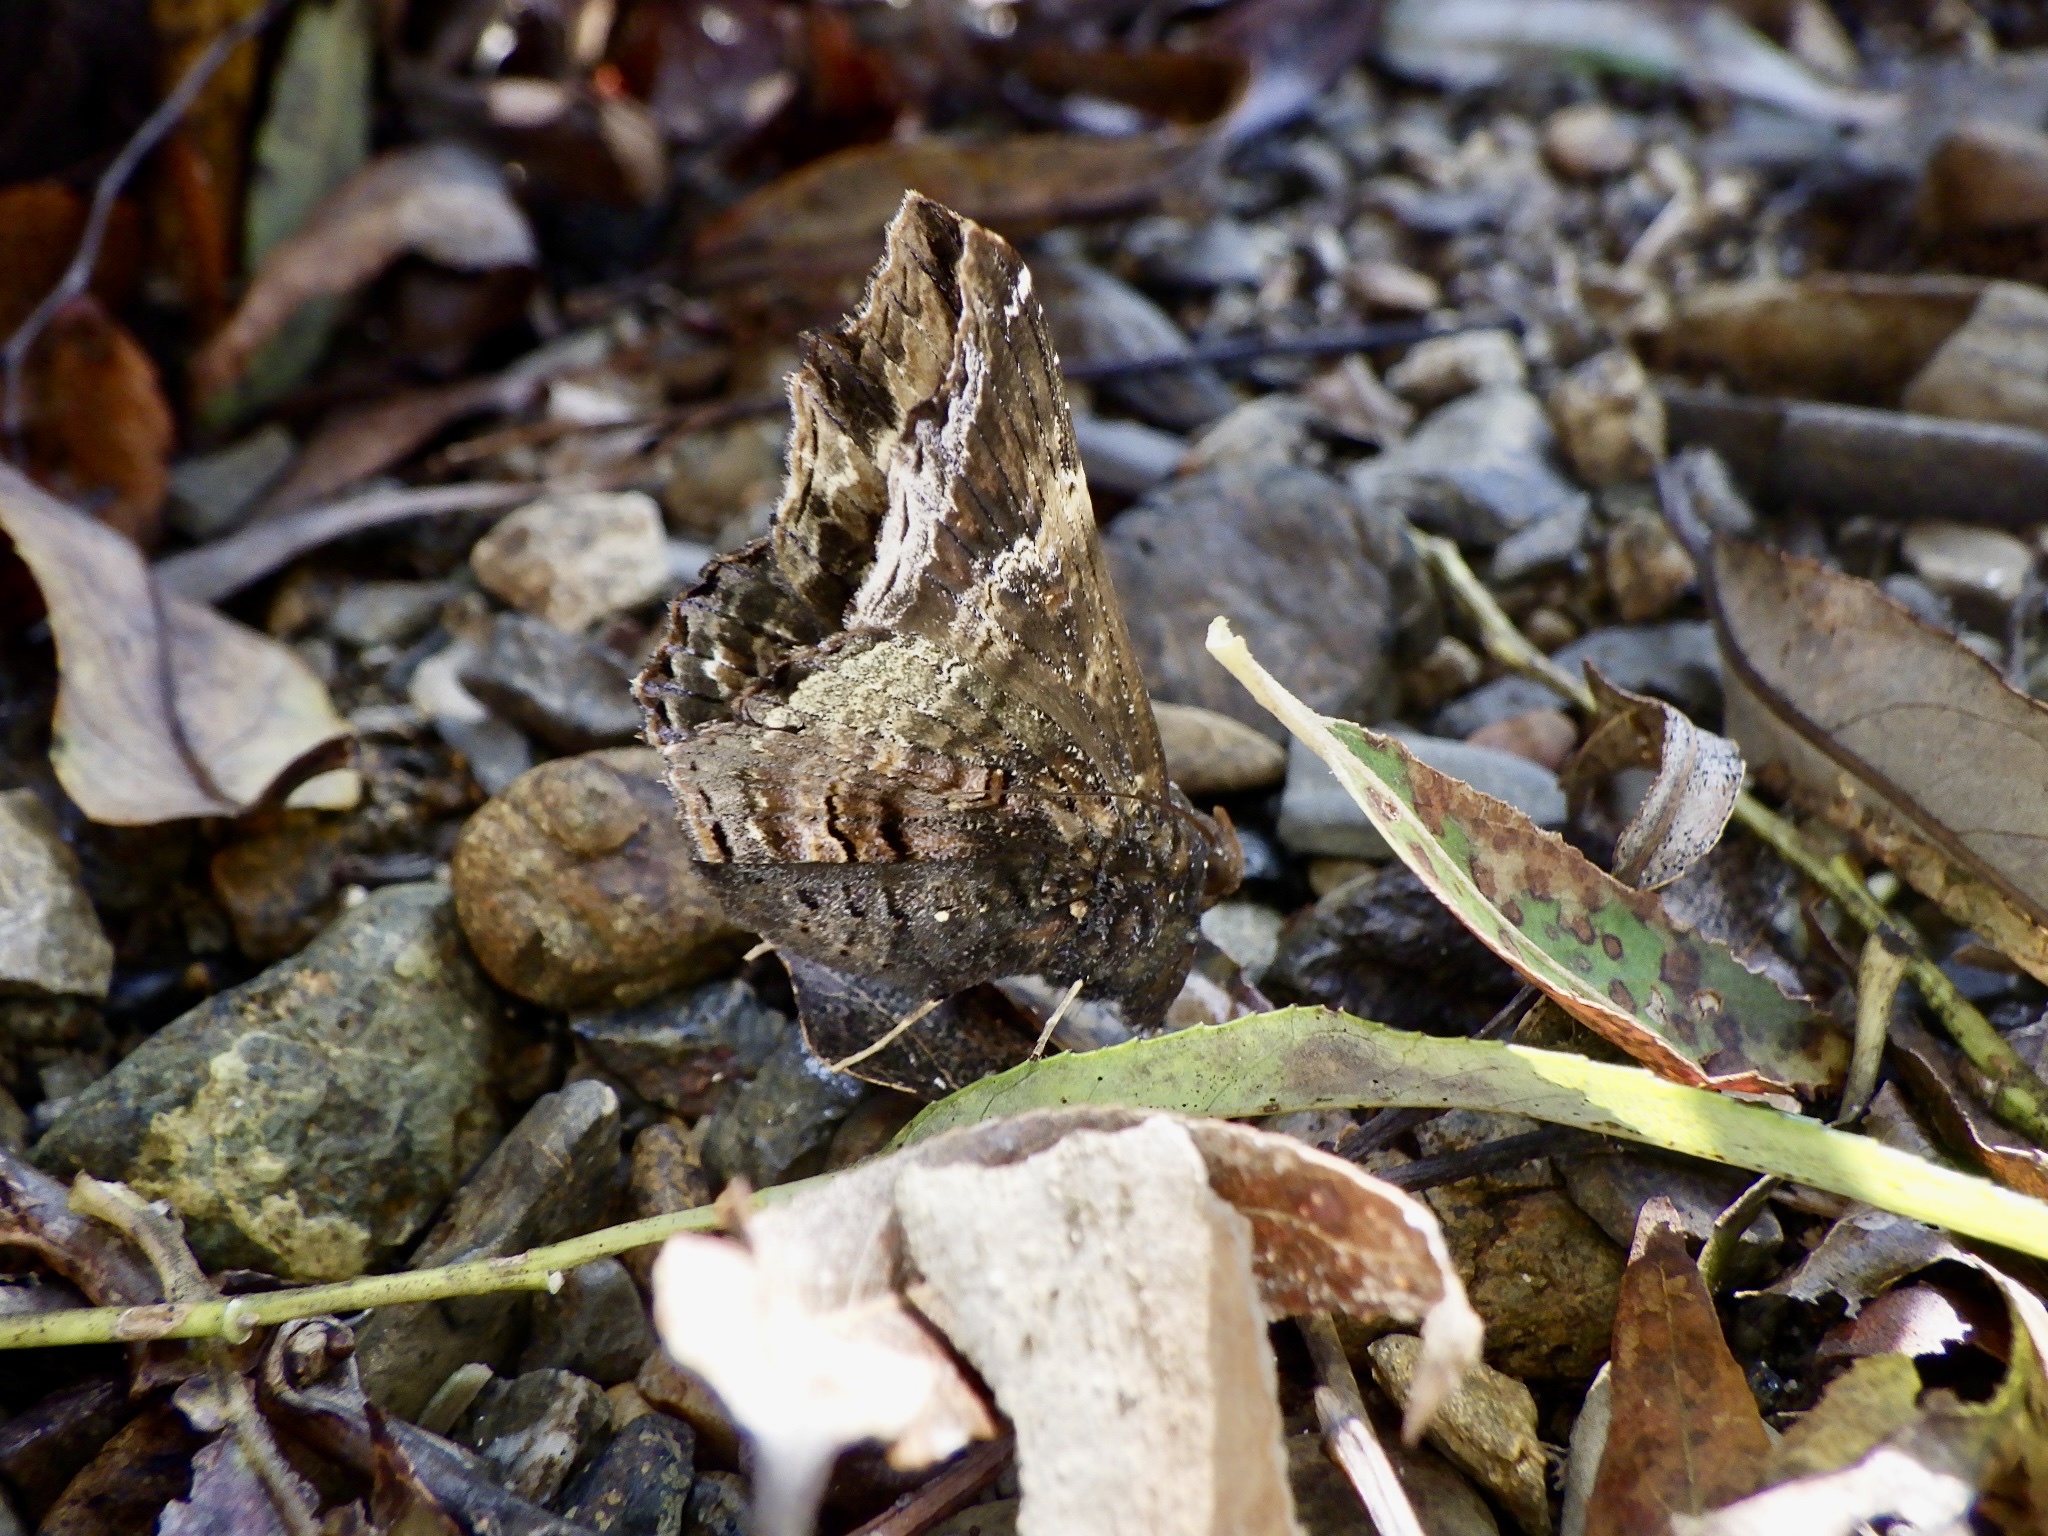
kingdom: Animalia
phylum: Arthropoda
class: Insecta
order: Lepidoptera
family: Erebidae
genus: Lacera
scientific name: Lacera procellosa
